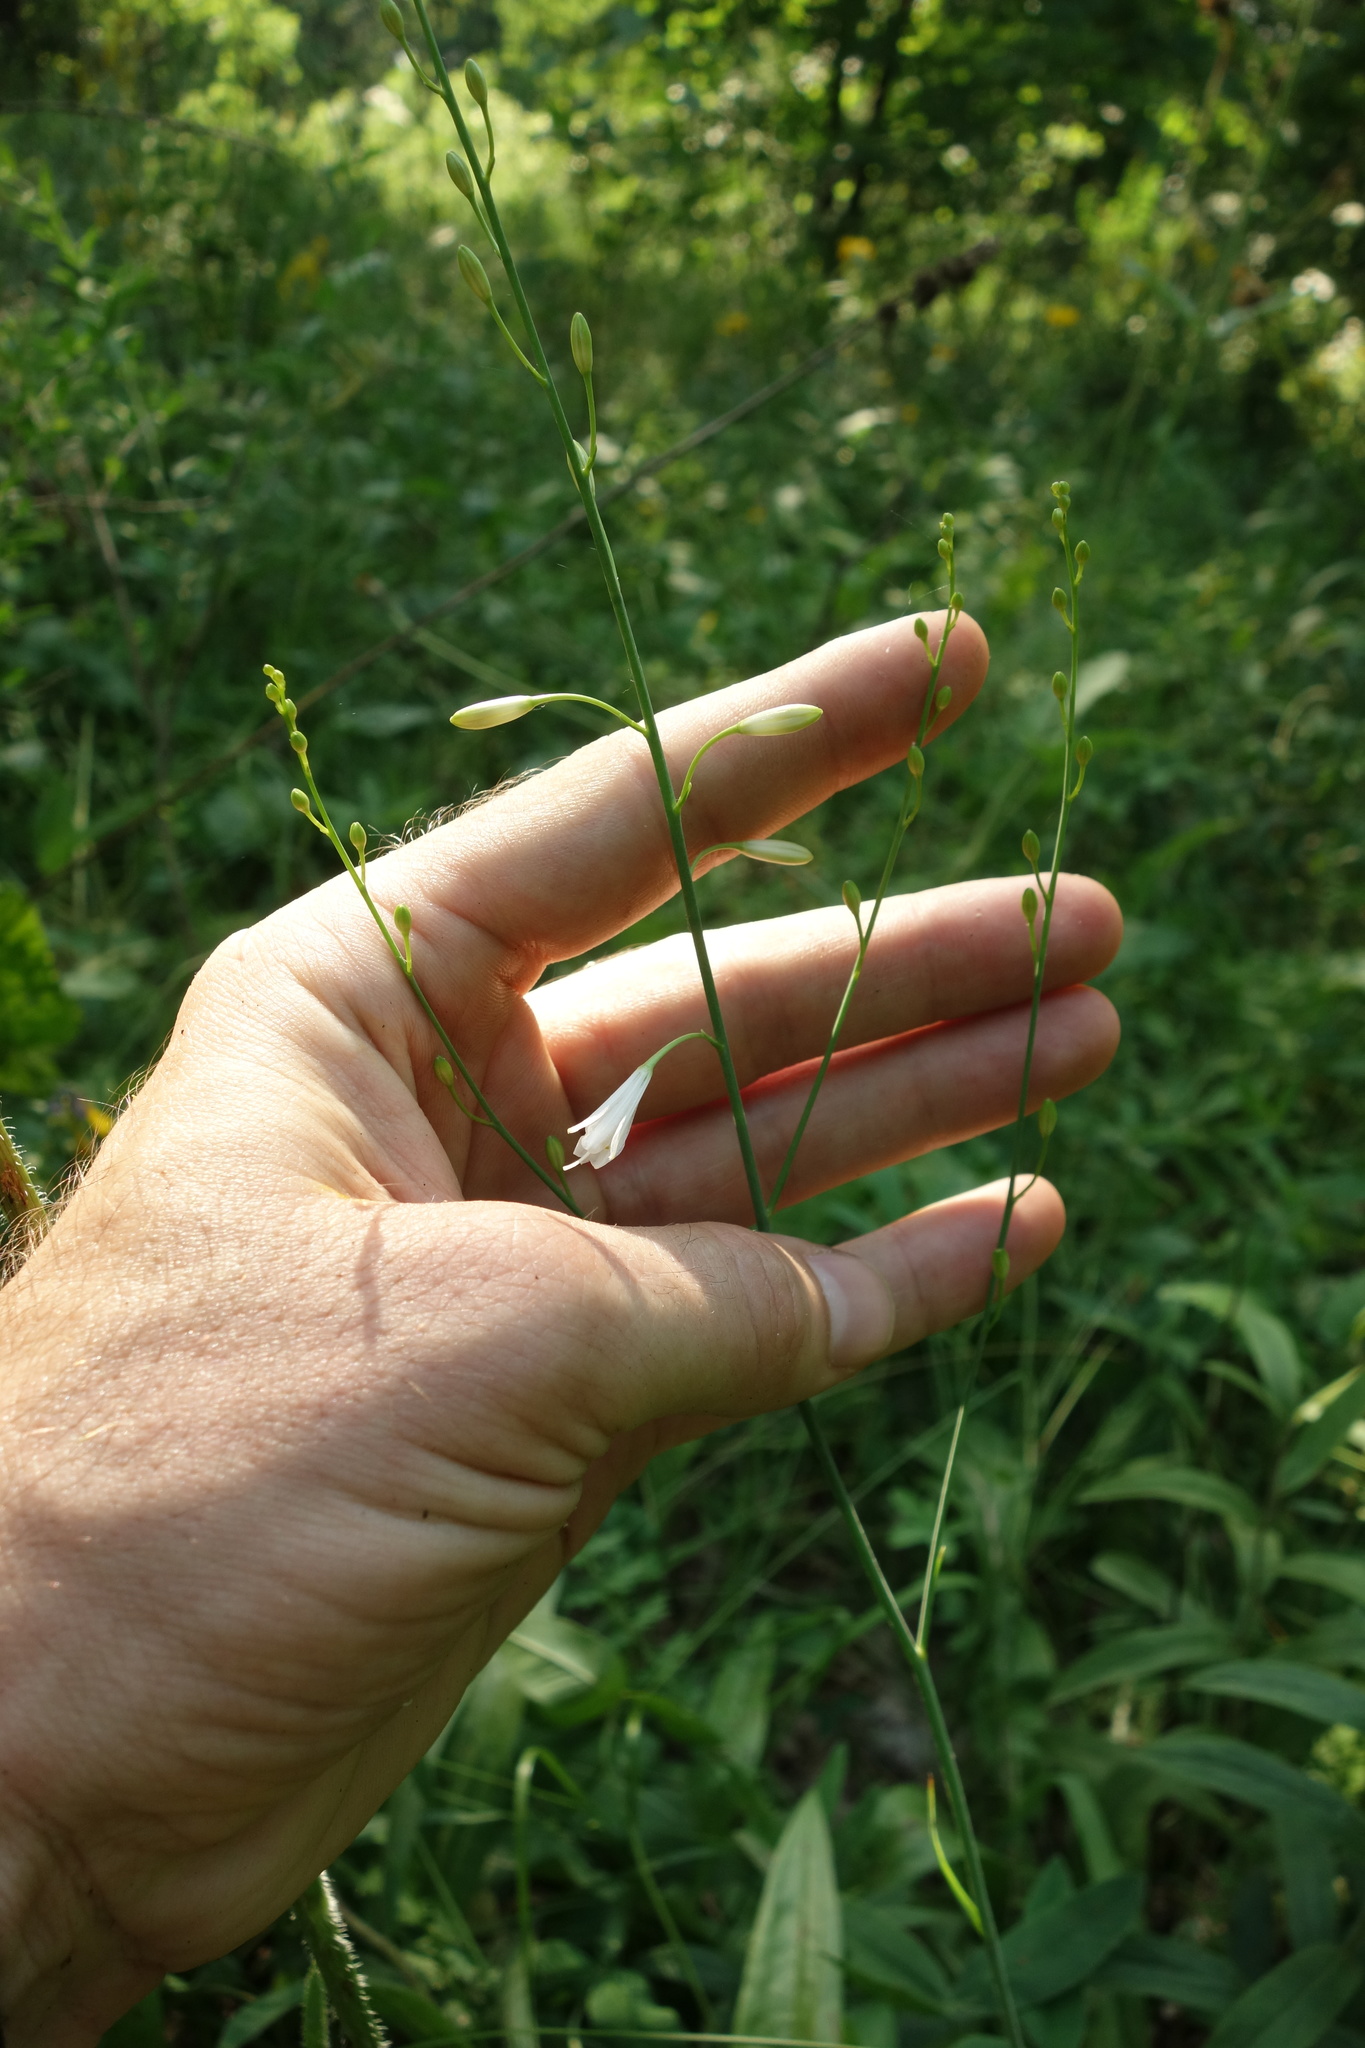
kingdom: Plantae
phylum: Tracheophyta
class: Liliopsida
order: Asparagales
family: Asparagaceae
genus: Anthericum
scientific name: Anthericum ramosum
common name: Branched st. bernard's-lily
